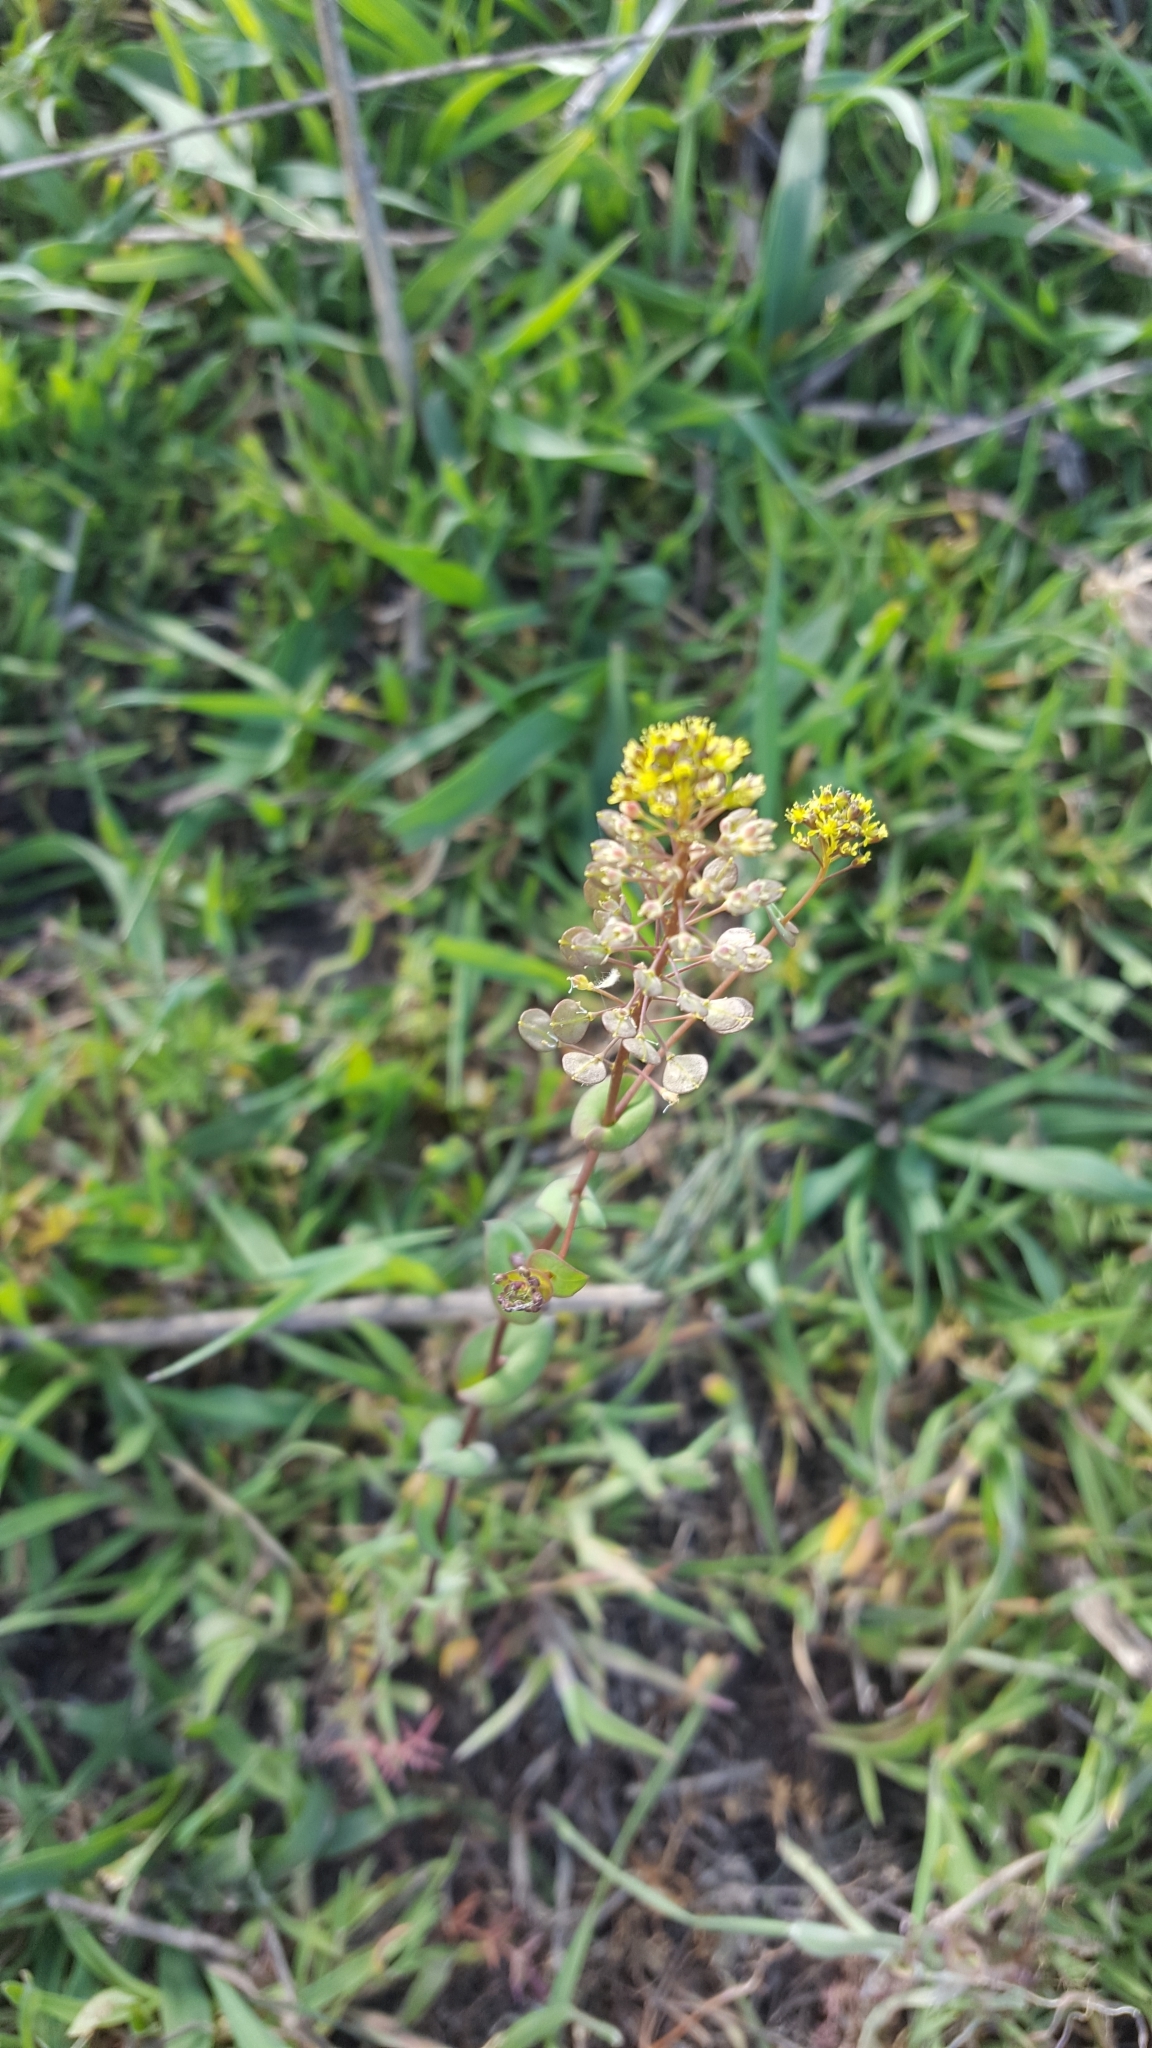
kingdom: Plantae
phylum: Tracheophyta
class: Magnoliopsida
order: Brassicales
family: Brassicaceae
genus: Lepidium
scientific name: Lepidium perfoliatum
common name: Perfoliate pepperwort
